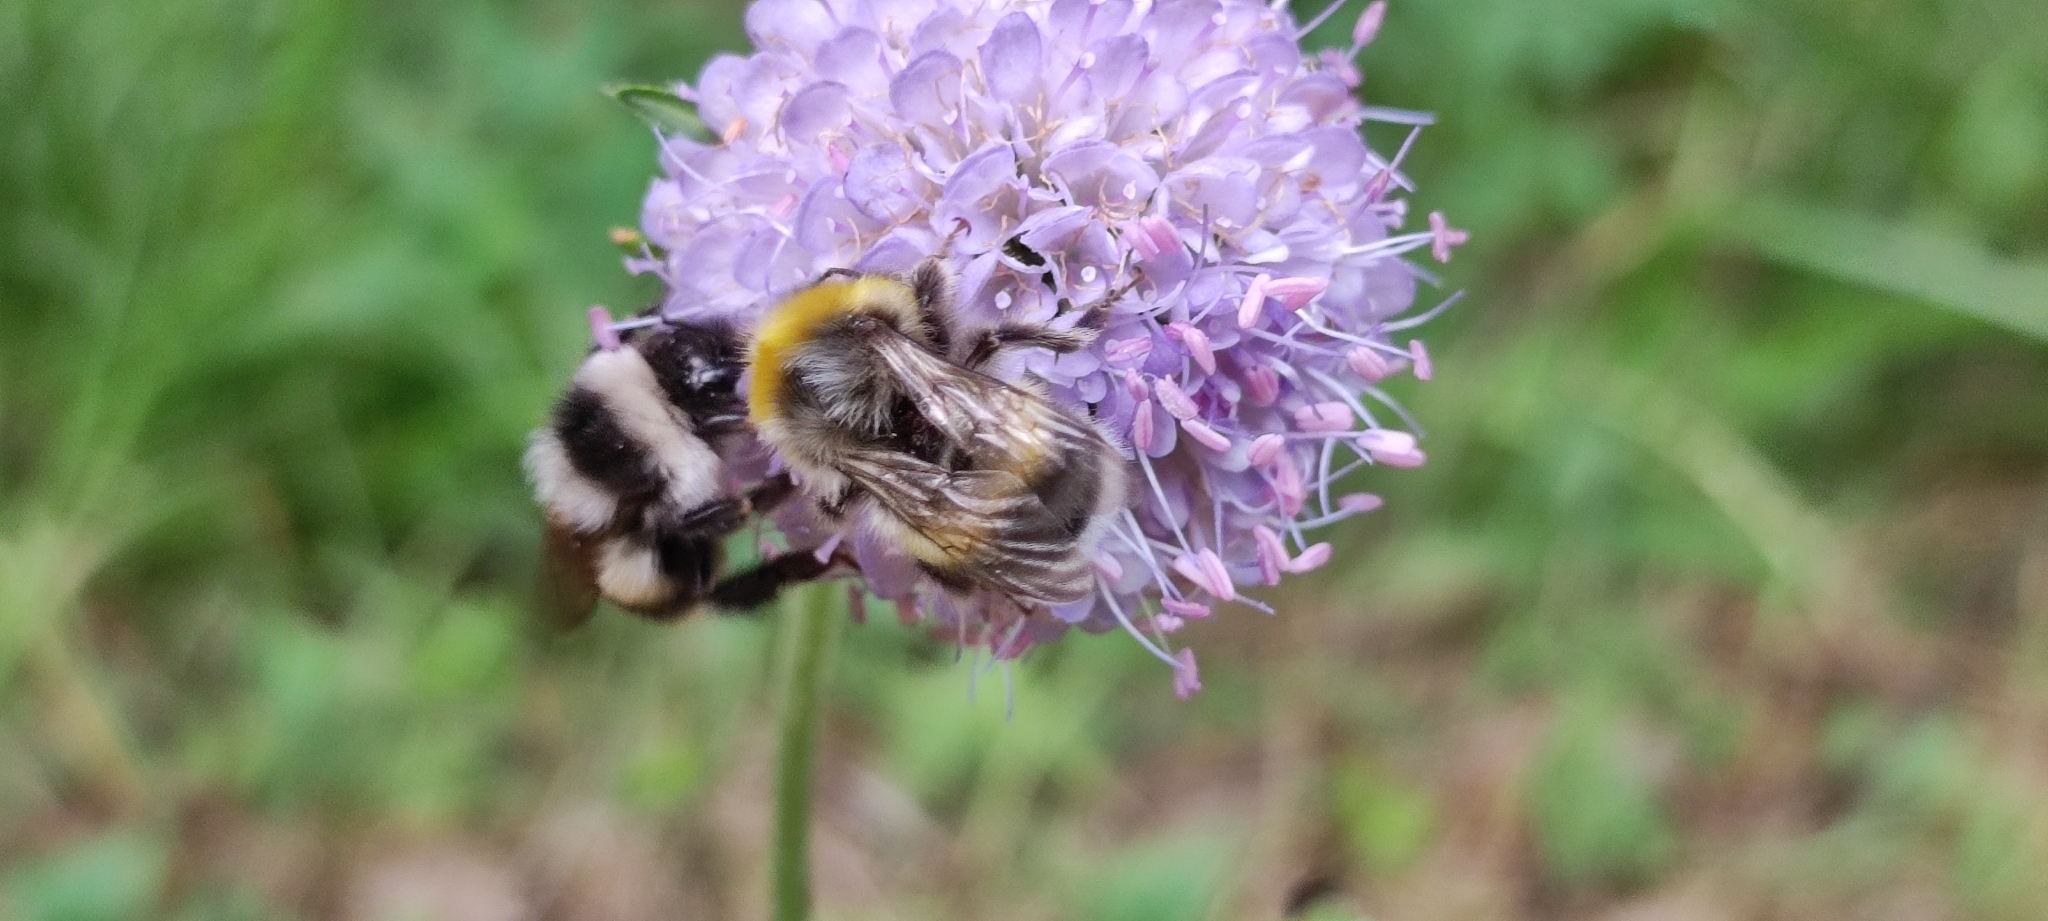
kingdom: Animalia
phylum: Arthropoda
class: Insecta
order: Hymenoptera
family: Apidae
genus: Bombus
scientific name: Bombus lucorum
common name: White-tailed bumblebee
